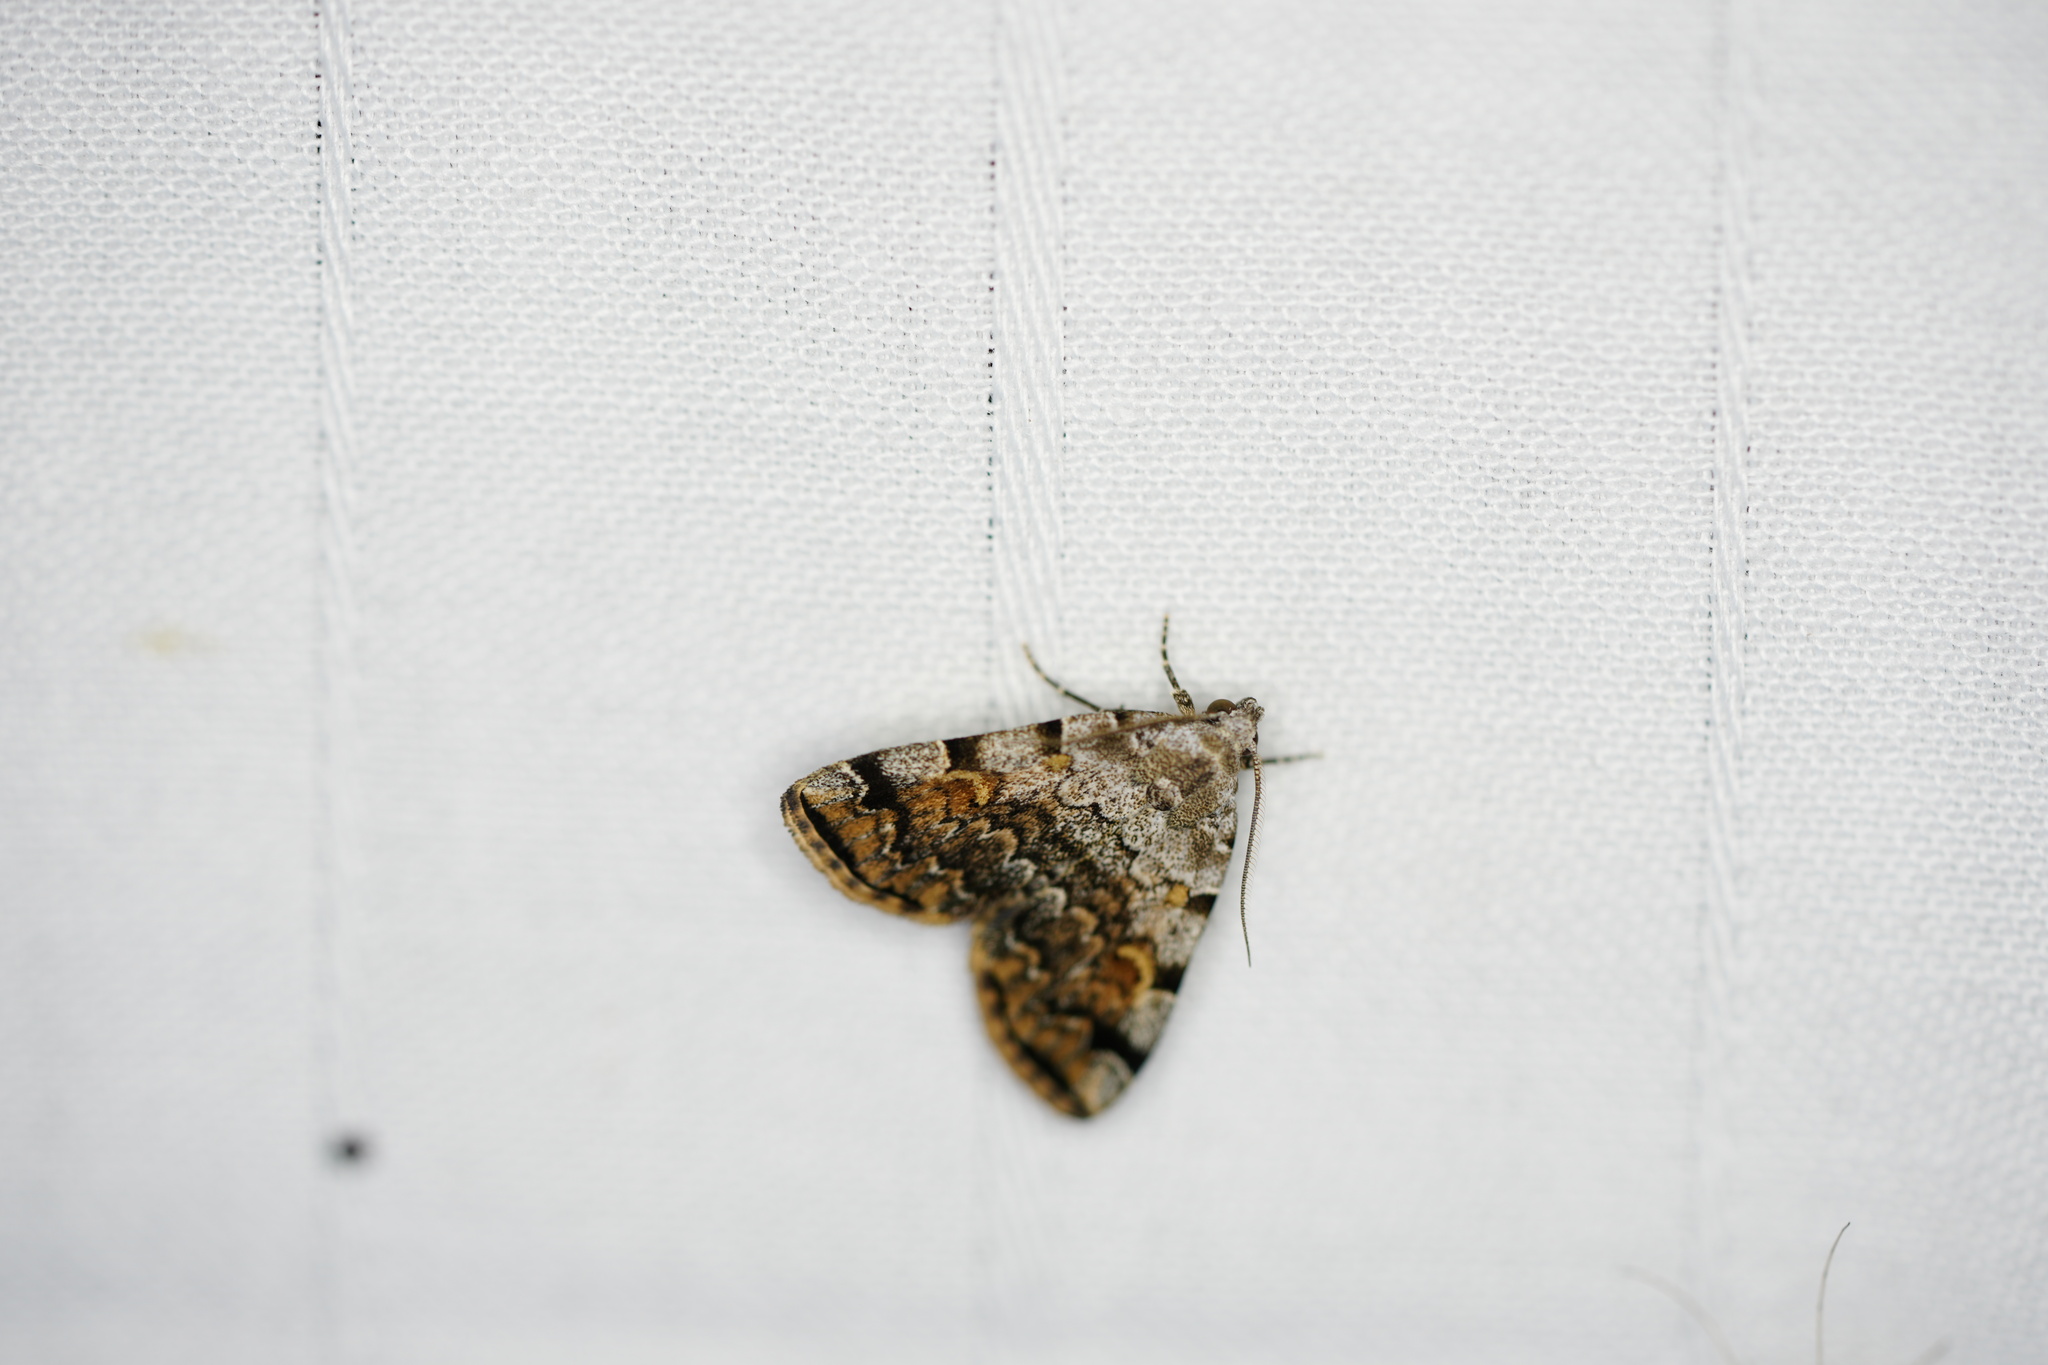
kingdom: Animalia
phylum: Arthropoda
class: Insecta
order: Lepidoptera
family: Erebidae
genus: Idia
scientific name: Idia americalis
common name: American idia moth
